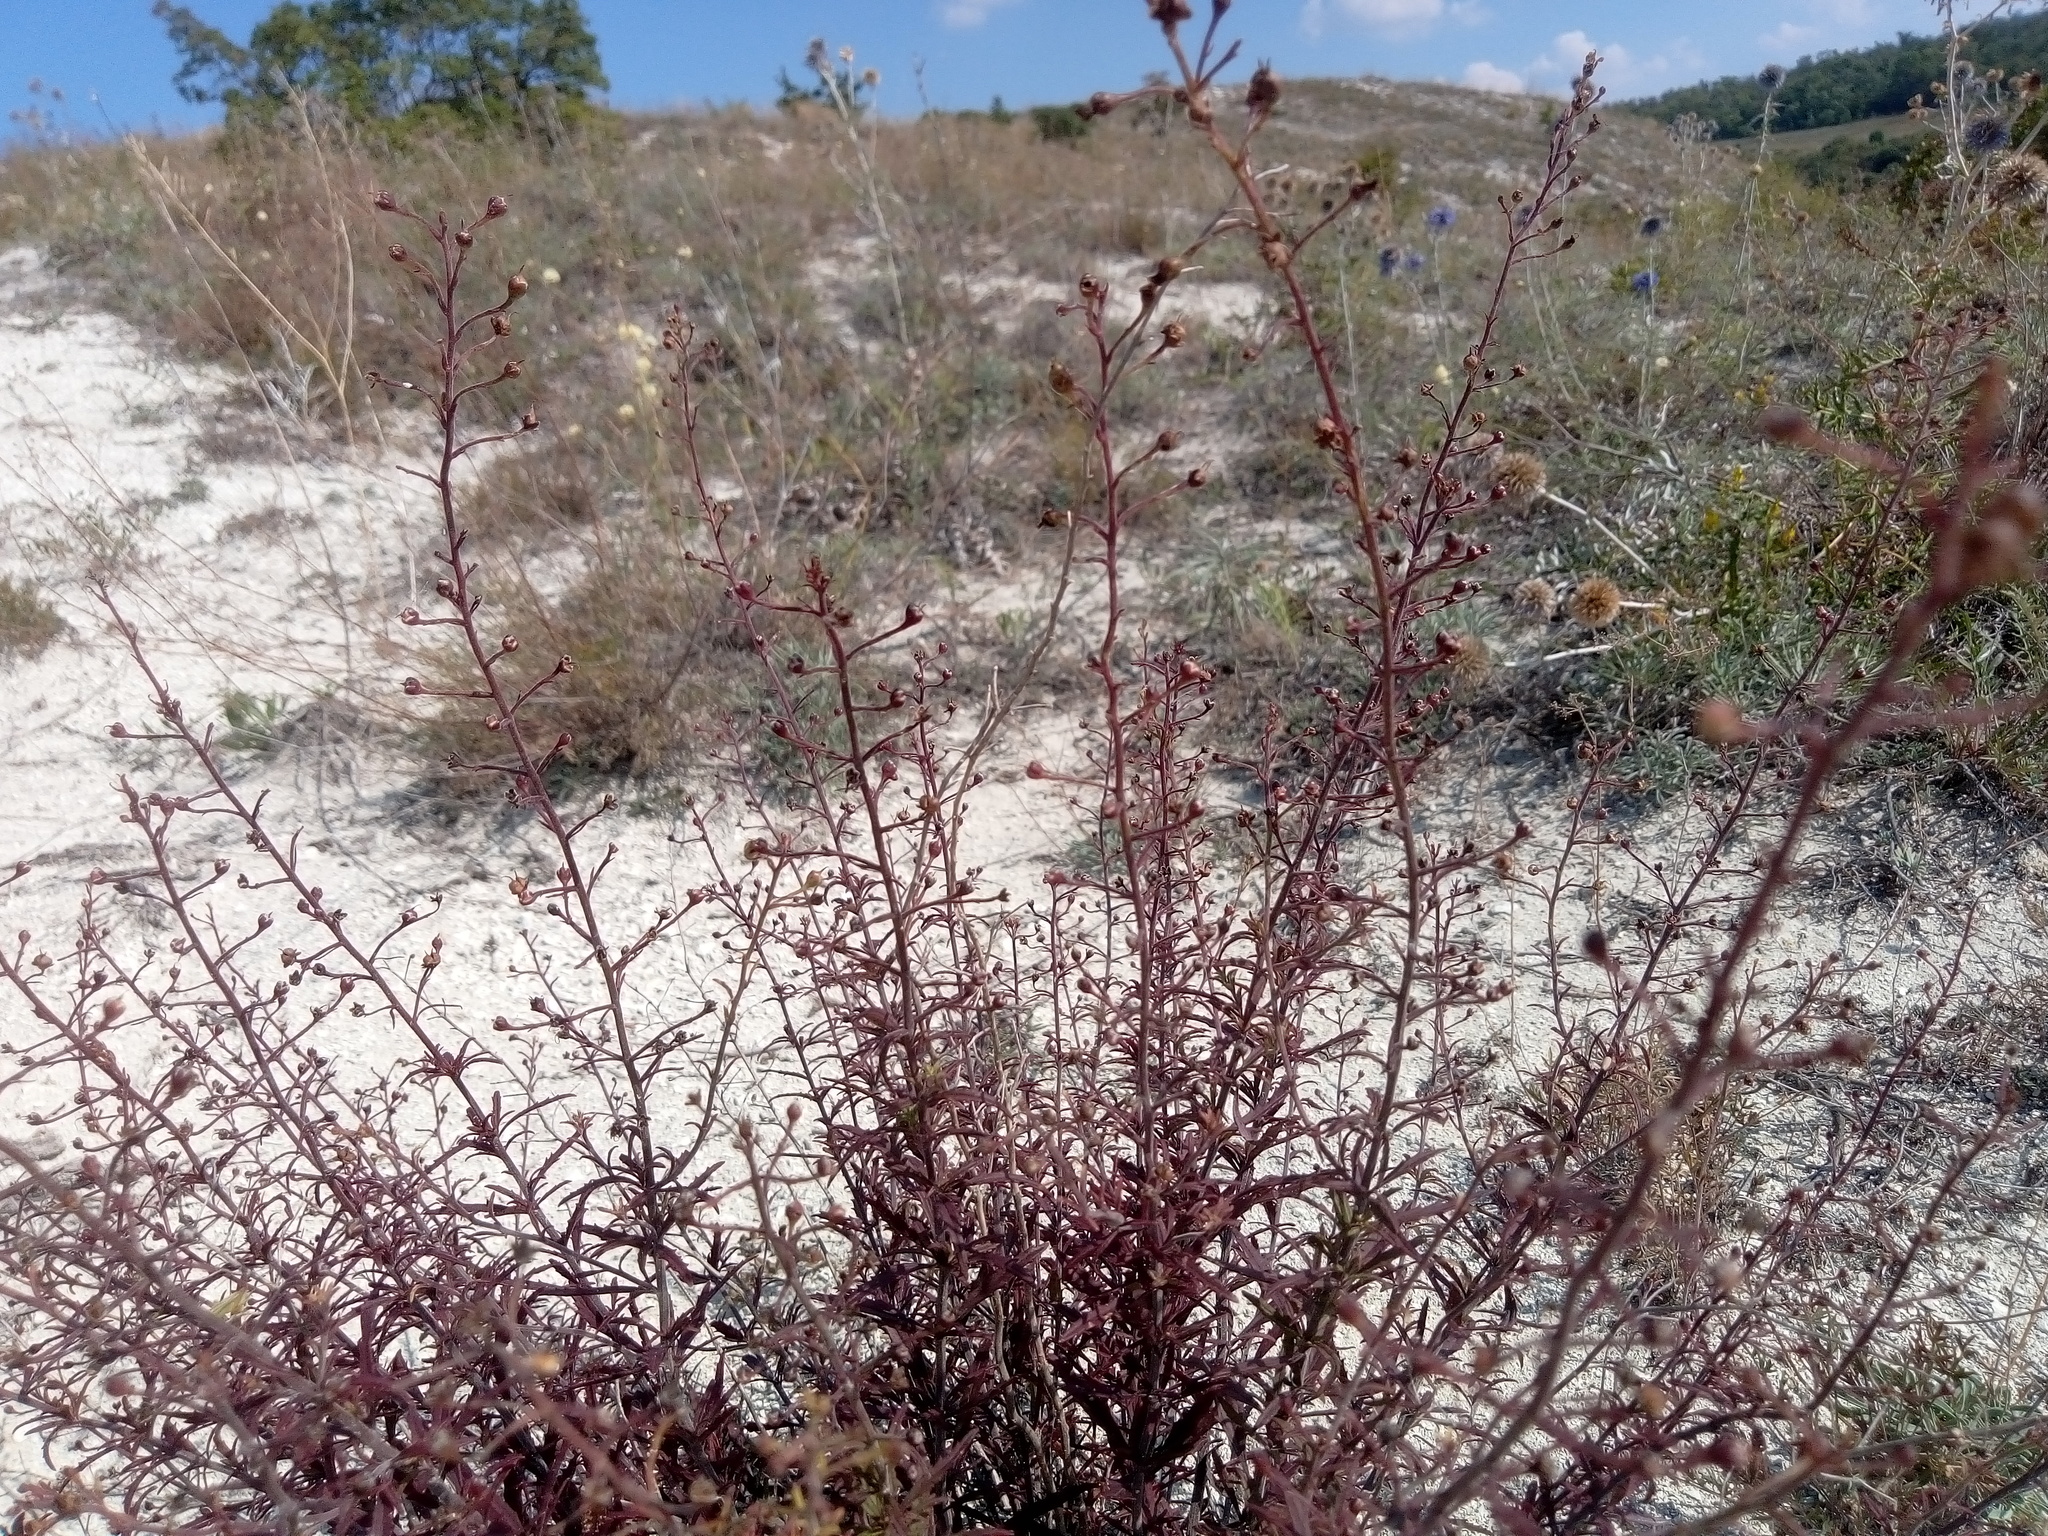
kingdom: Plantae
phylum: Tracheophyta
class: Magnoliopsida
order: Lamiales
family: Scrophulariaceae
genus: Scrophularia
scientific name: Scrophularia cretacea
